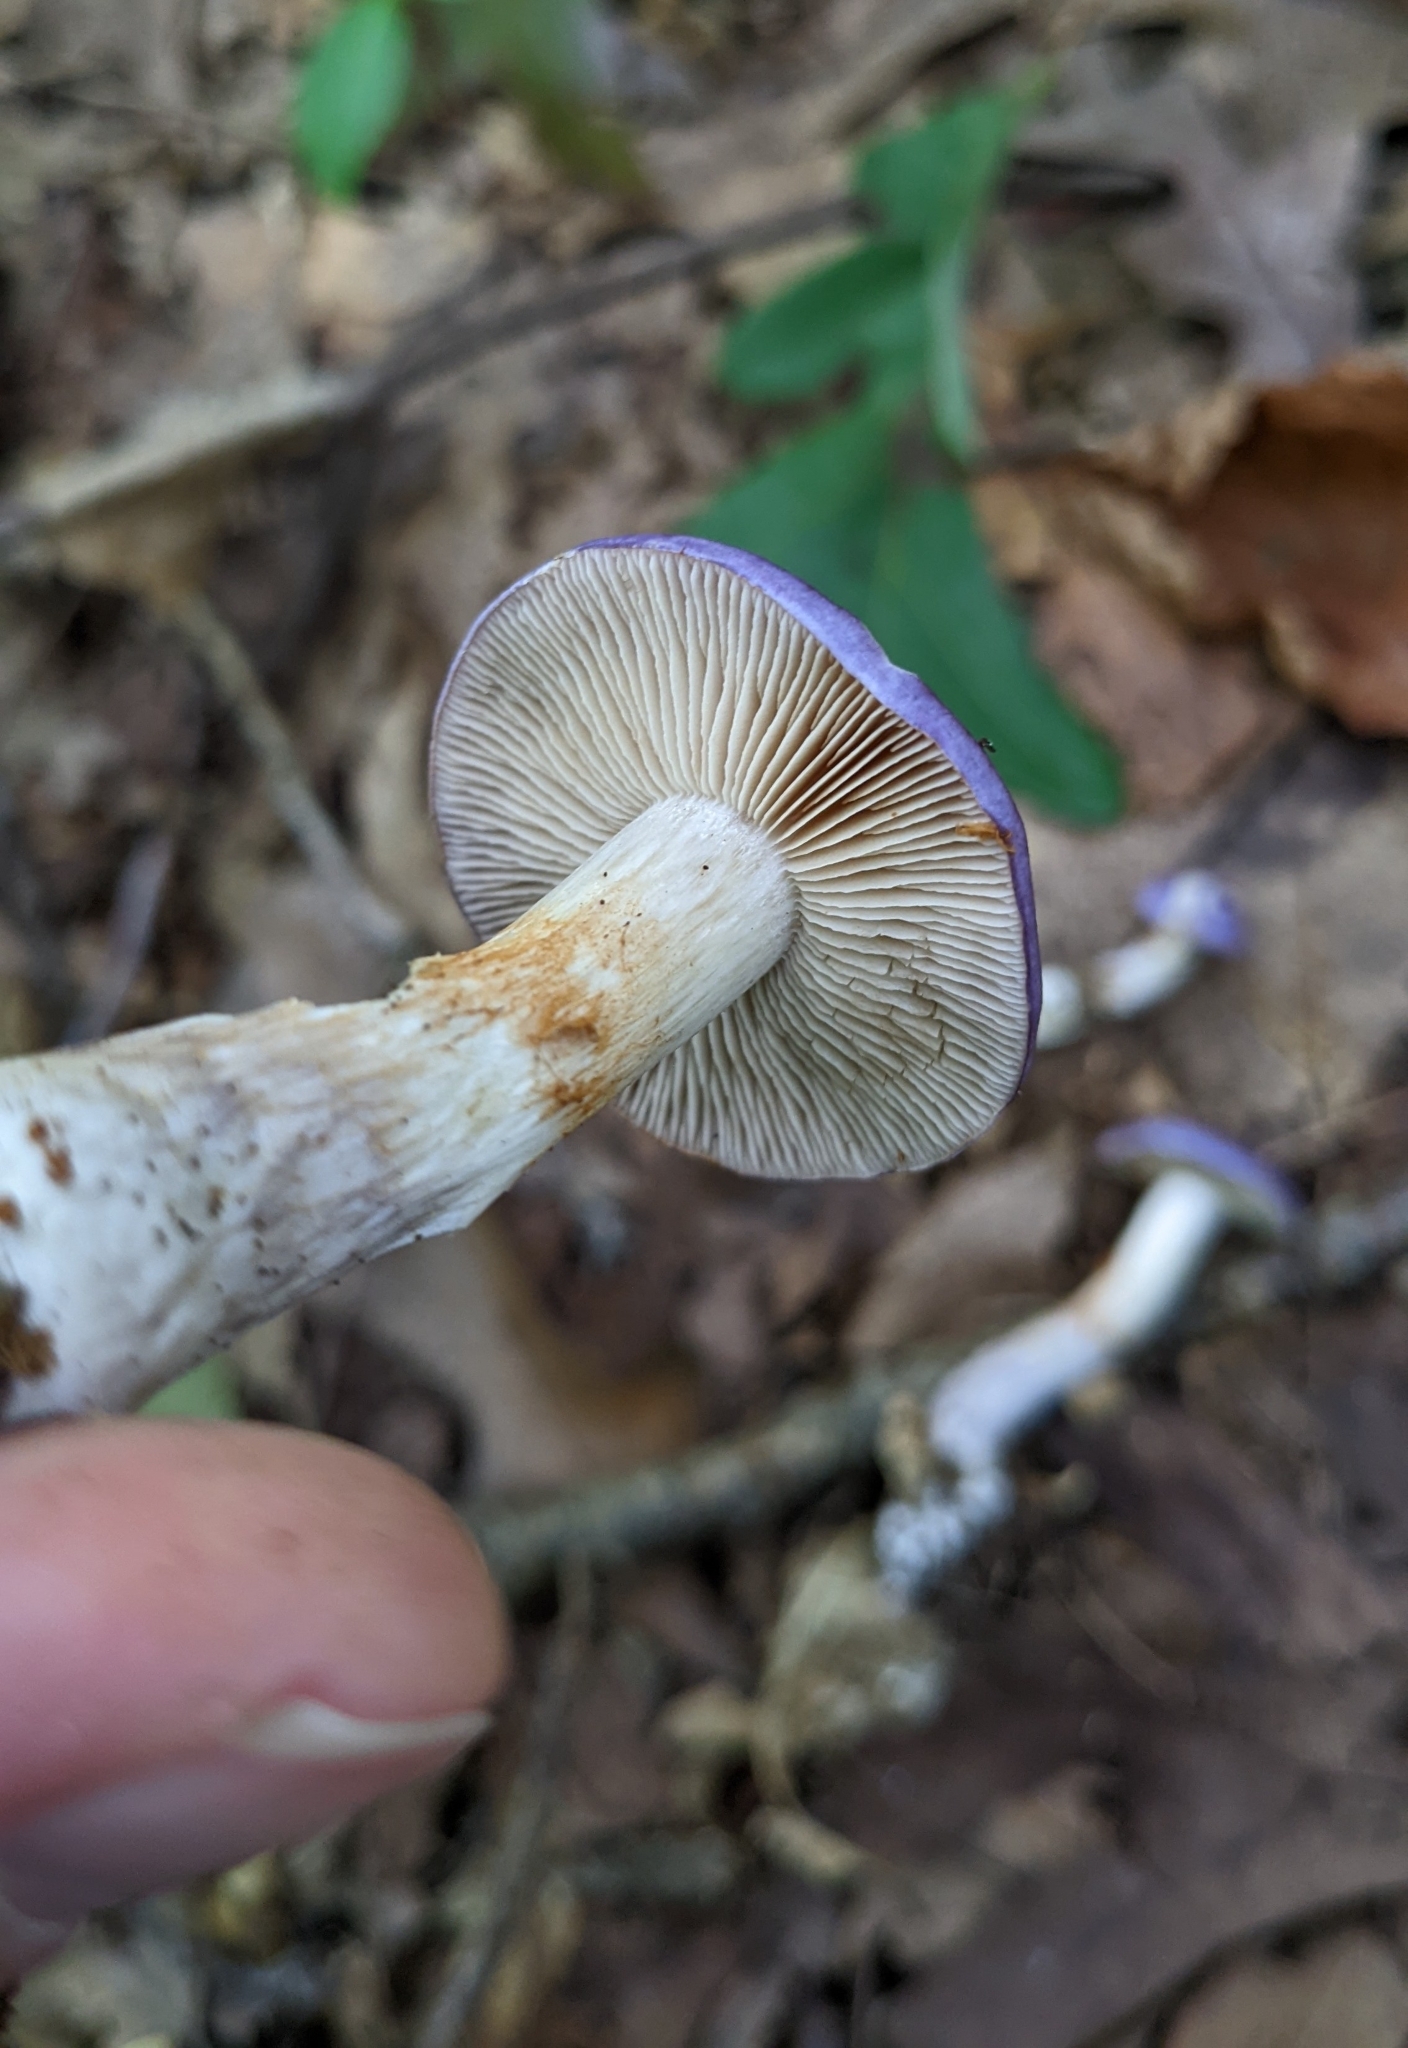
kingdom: Fungi
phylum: Basidiomycota
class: Agaricomycetes
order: Agaricales
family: Cortinariaceae
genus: Cortinarius
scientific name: Cortinarius iodeoides
